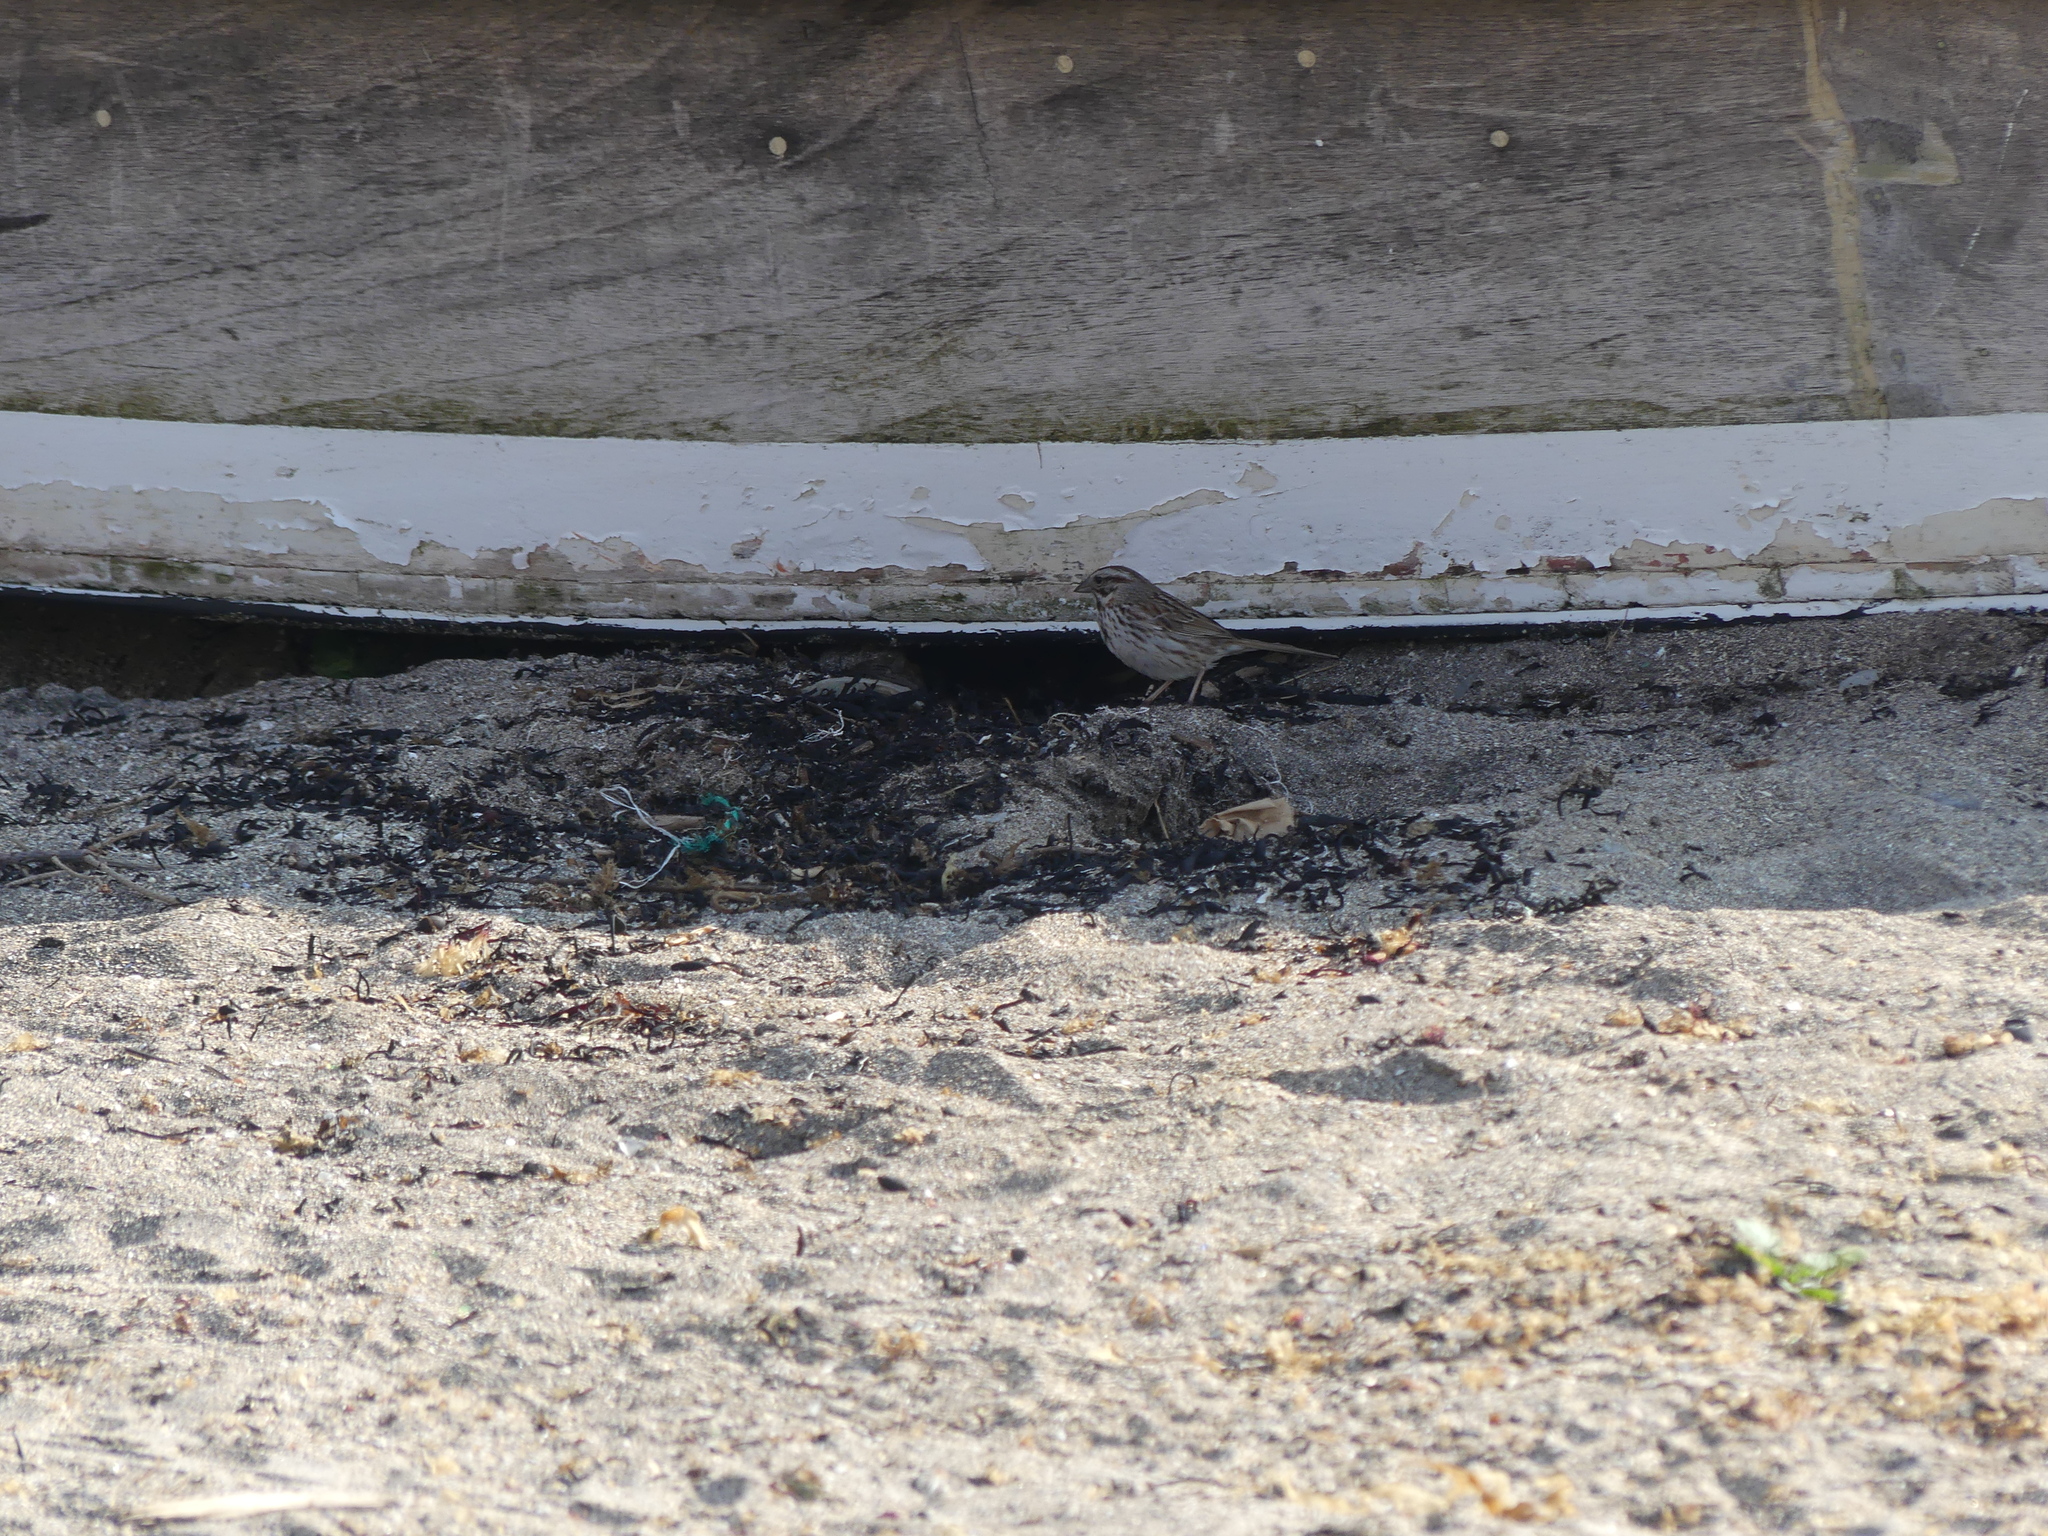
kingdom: Animalia
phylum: Chordata
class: Aves
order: Passeriformes
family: Passerellidae
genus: Melospiza
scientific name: Melospiza melodia
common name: Song sparrow
